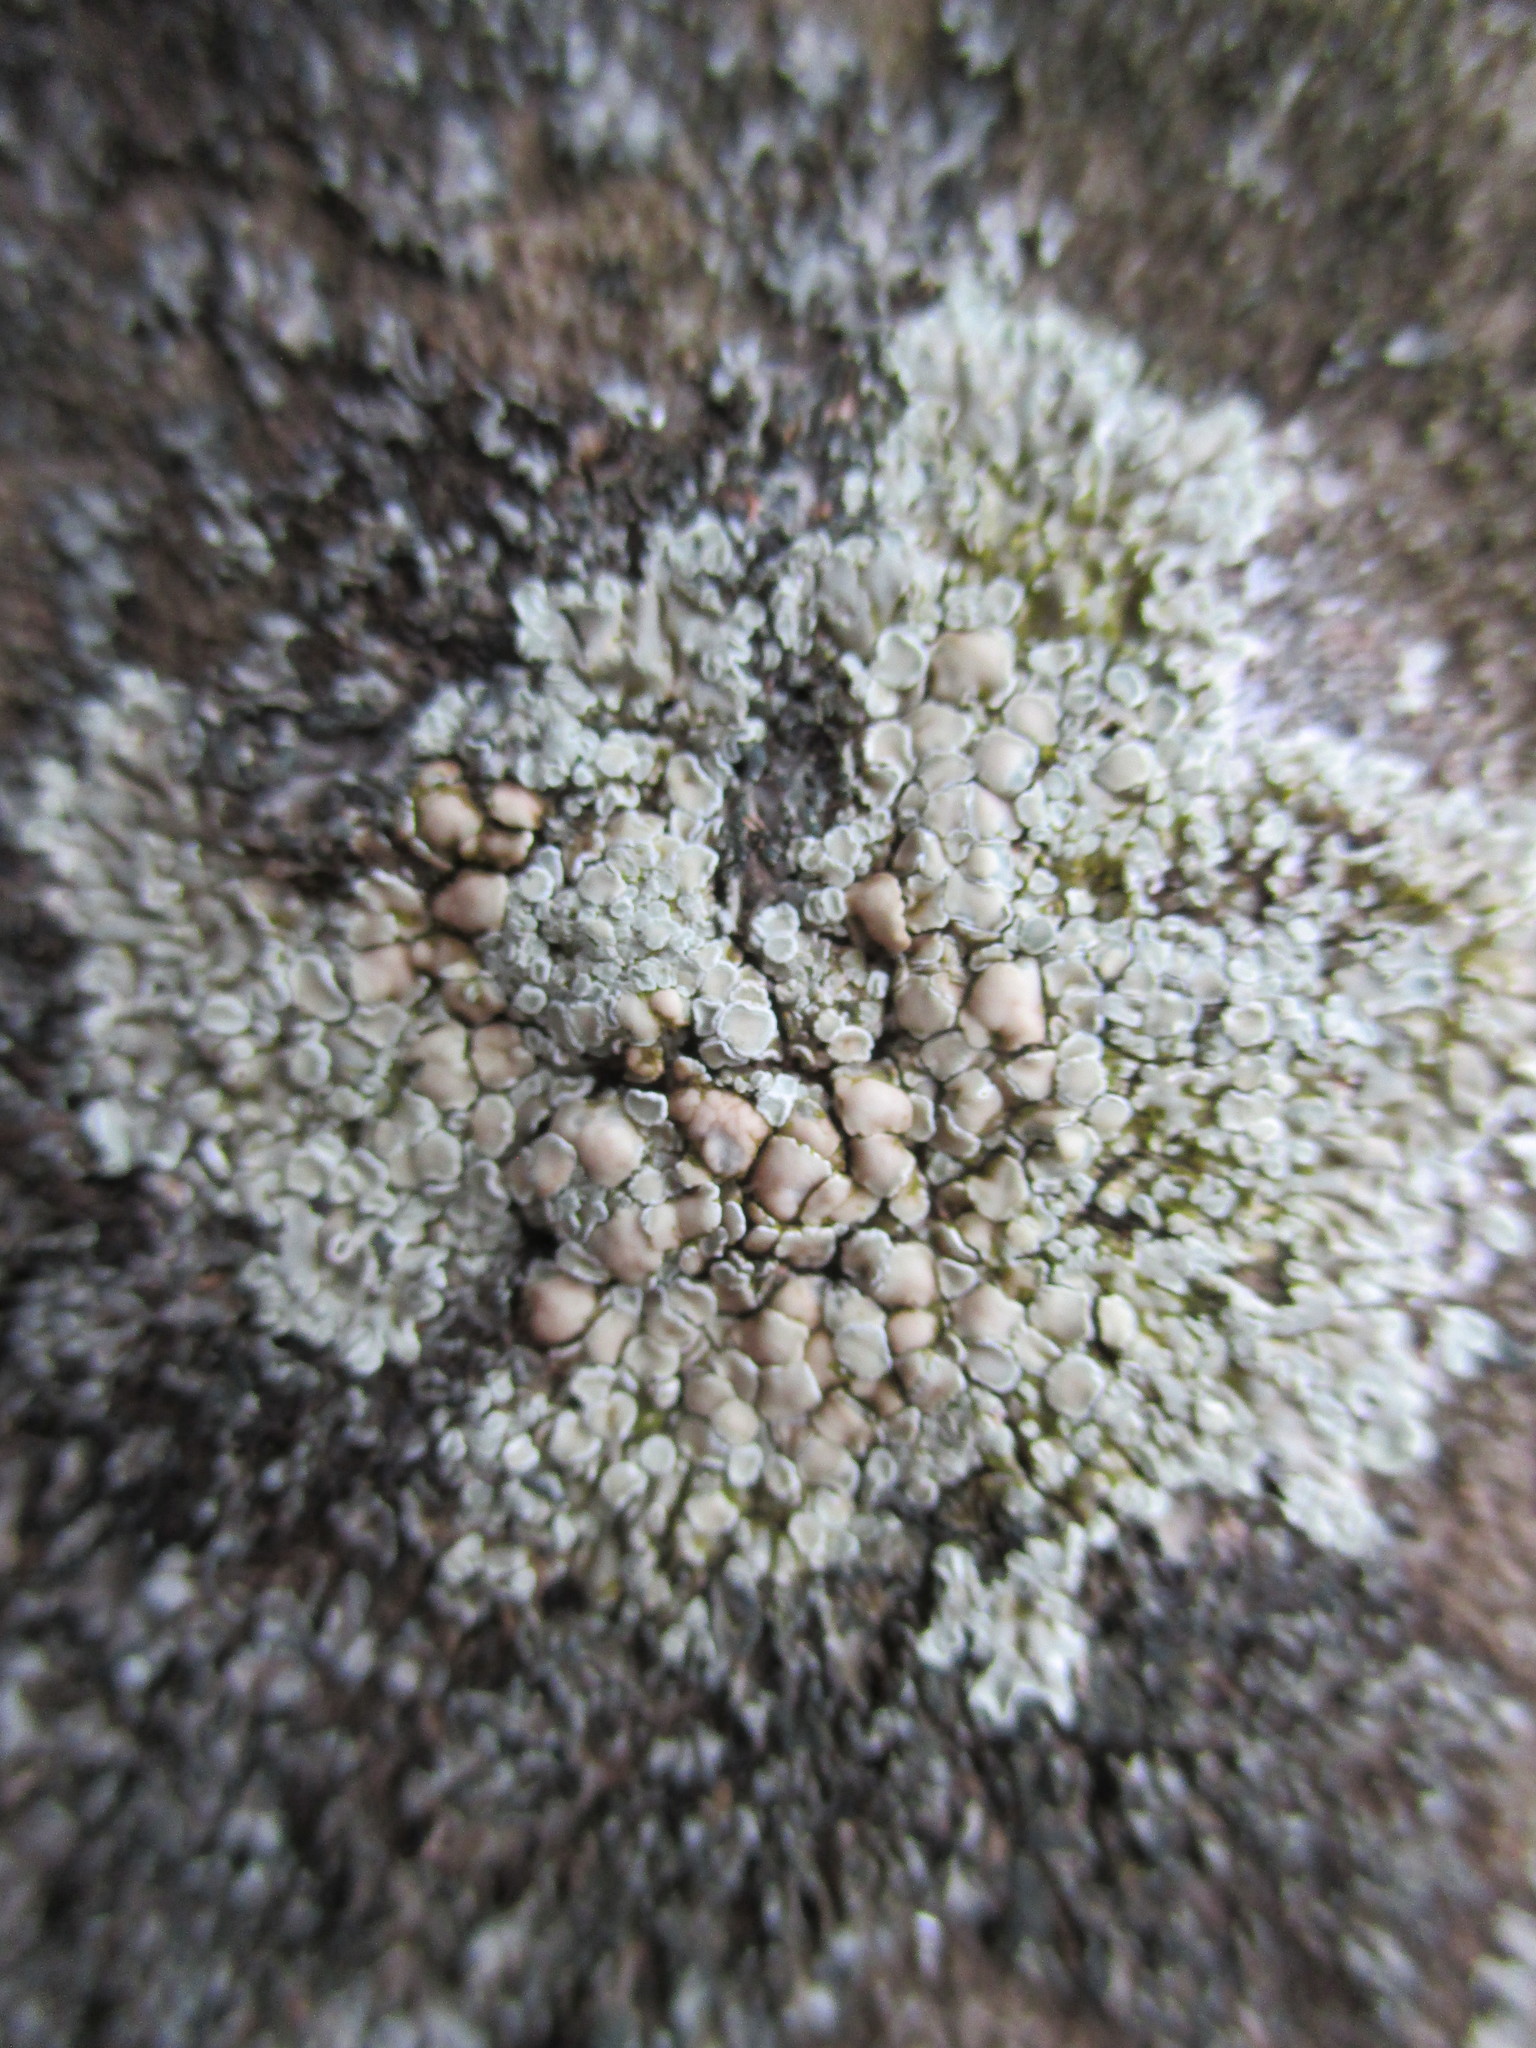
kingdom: Fungi
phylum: Ascomycota
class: Lecanoromycetes
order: Lecanorales
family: Lecanoraceae
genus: Protoparmeliopsis
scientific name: Protoparmeliopsis muralis
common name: Stonewall rim lichen
